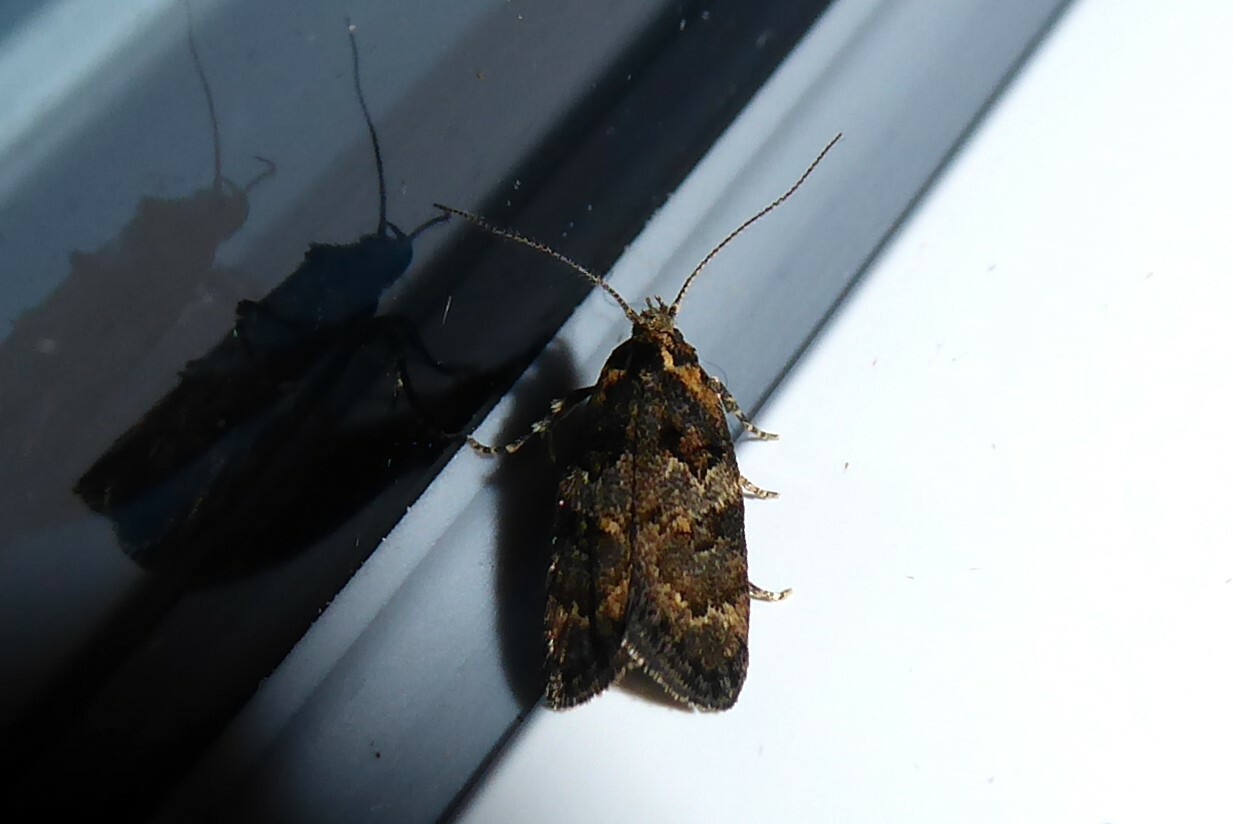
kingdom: Animalia
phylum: Arthropoda
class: Insecta
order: Lepidoptera
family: Oecophoridae
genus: Trachypepla
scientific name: Trachypepla anastrella
